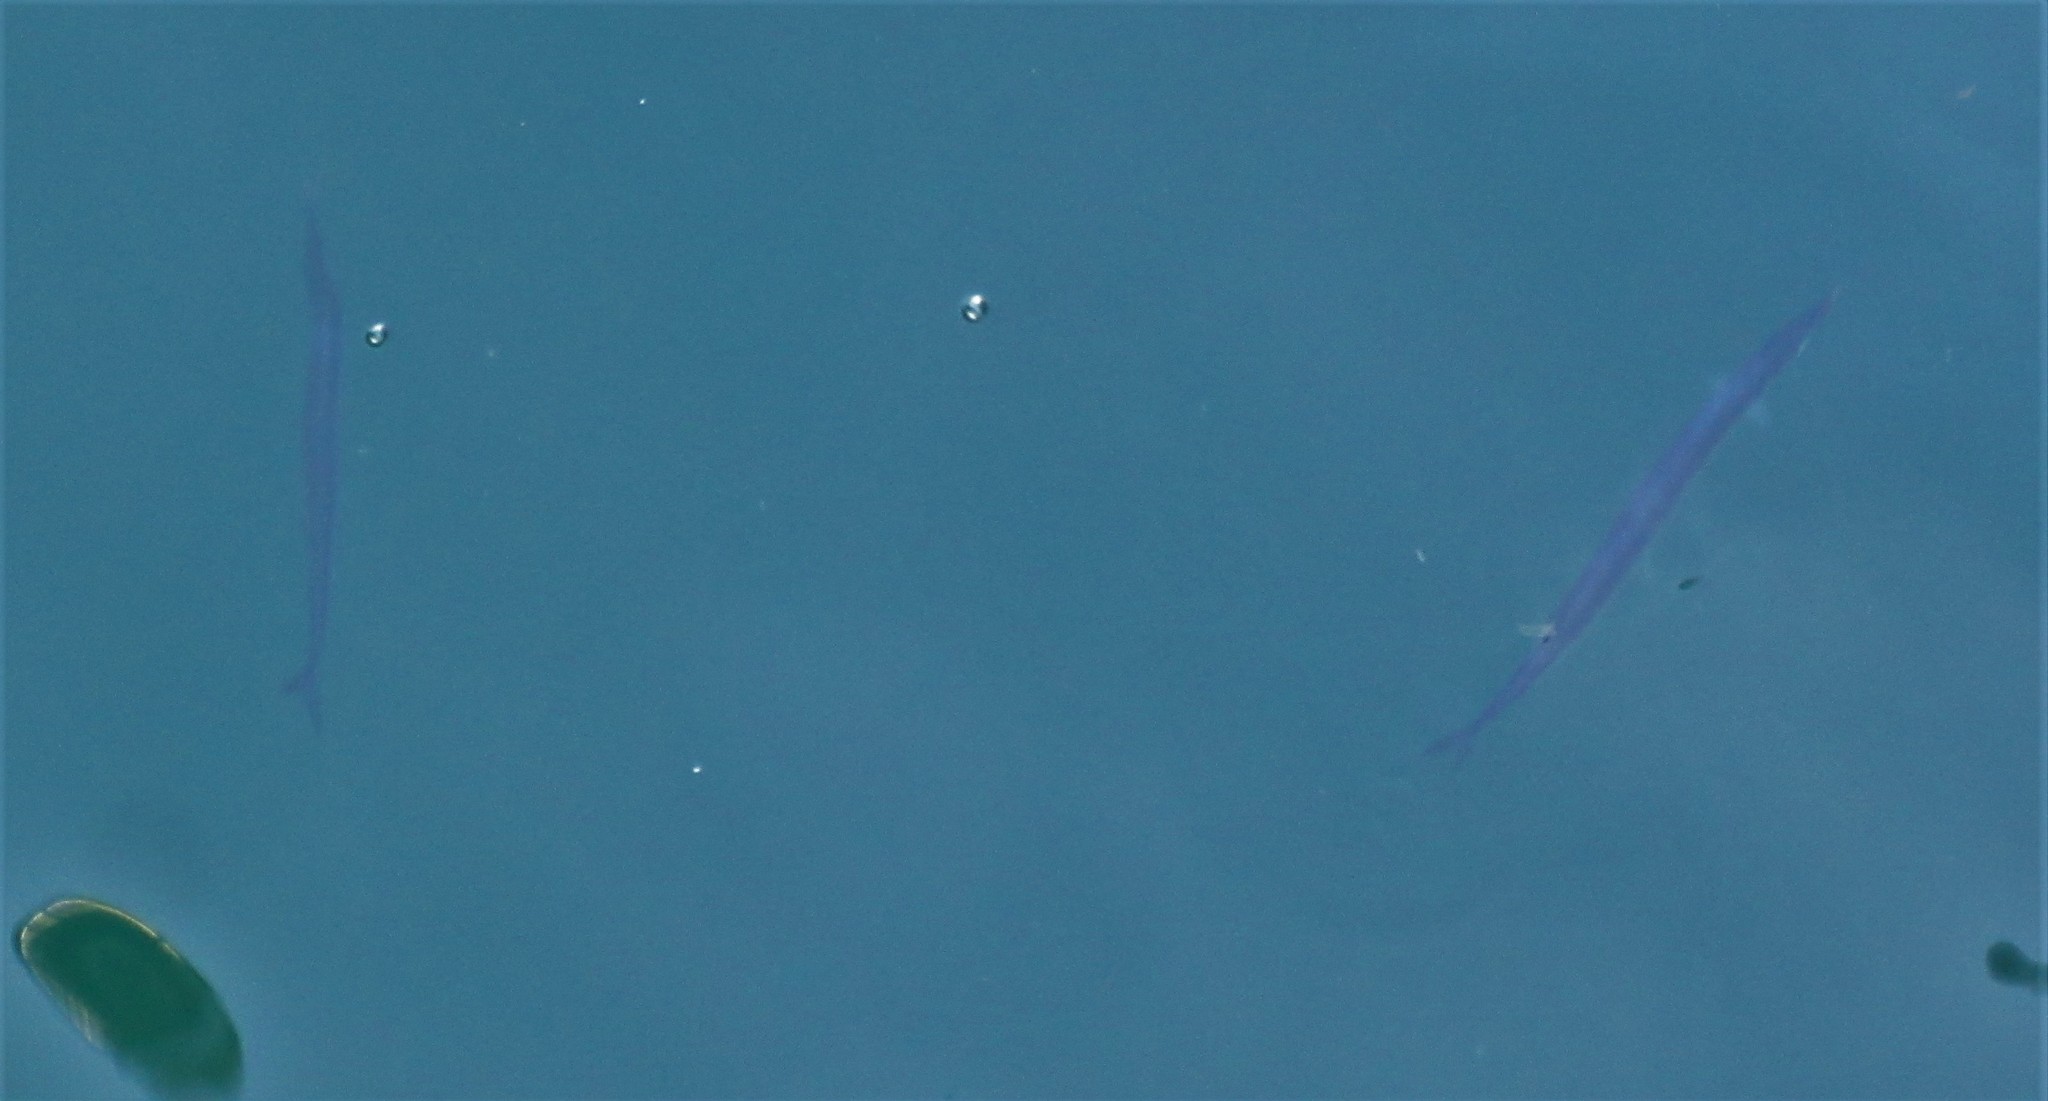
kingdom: Animalia
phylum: Chordata
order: Beloniformes
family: Scomberesocidae
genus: Scomberesox
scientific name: Scomberesox saurus
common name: Skipper
